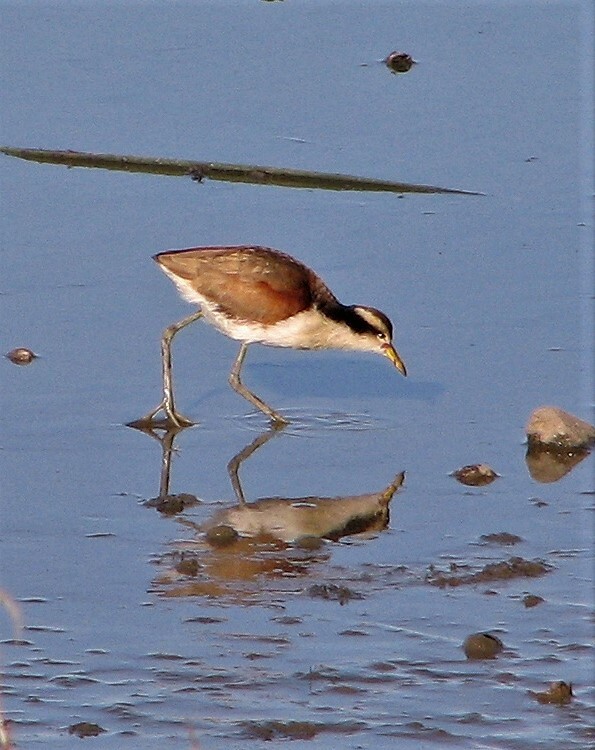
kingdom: Animalia
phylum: Chordata
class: Aves
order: Charadriiformes
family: Jacanidae
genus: Jacana
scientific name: Jacana jacana
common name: Wattled jacana
